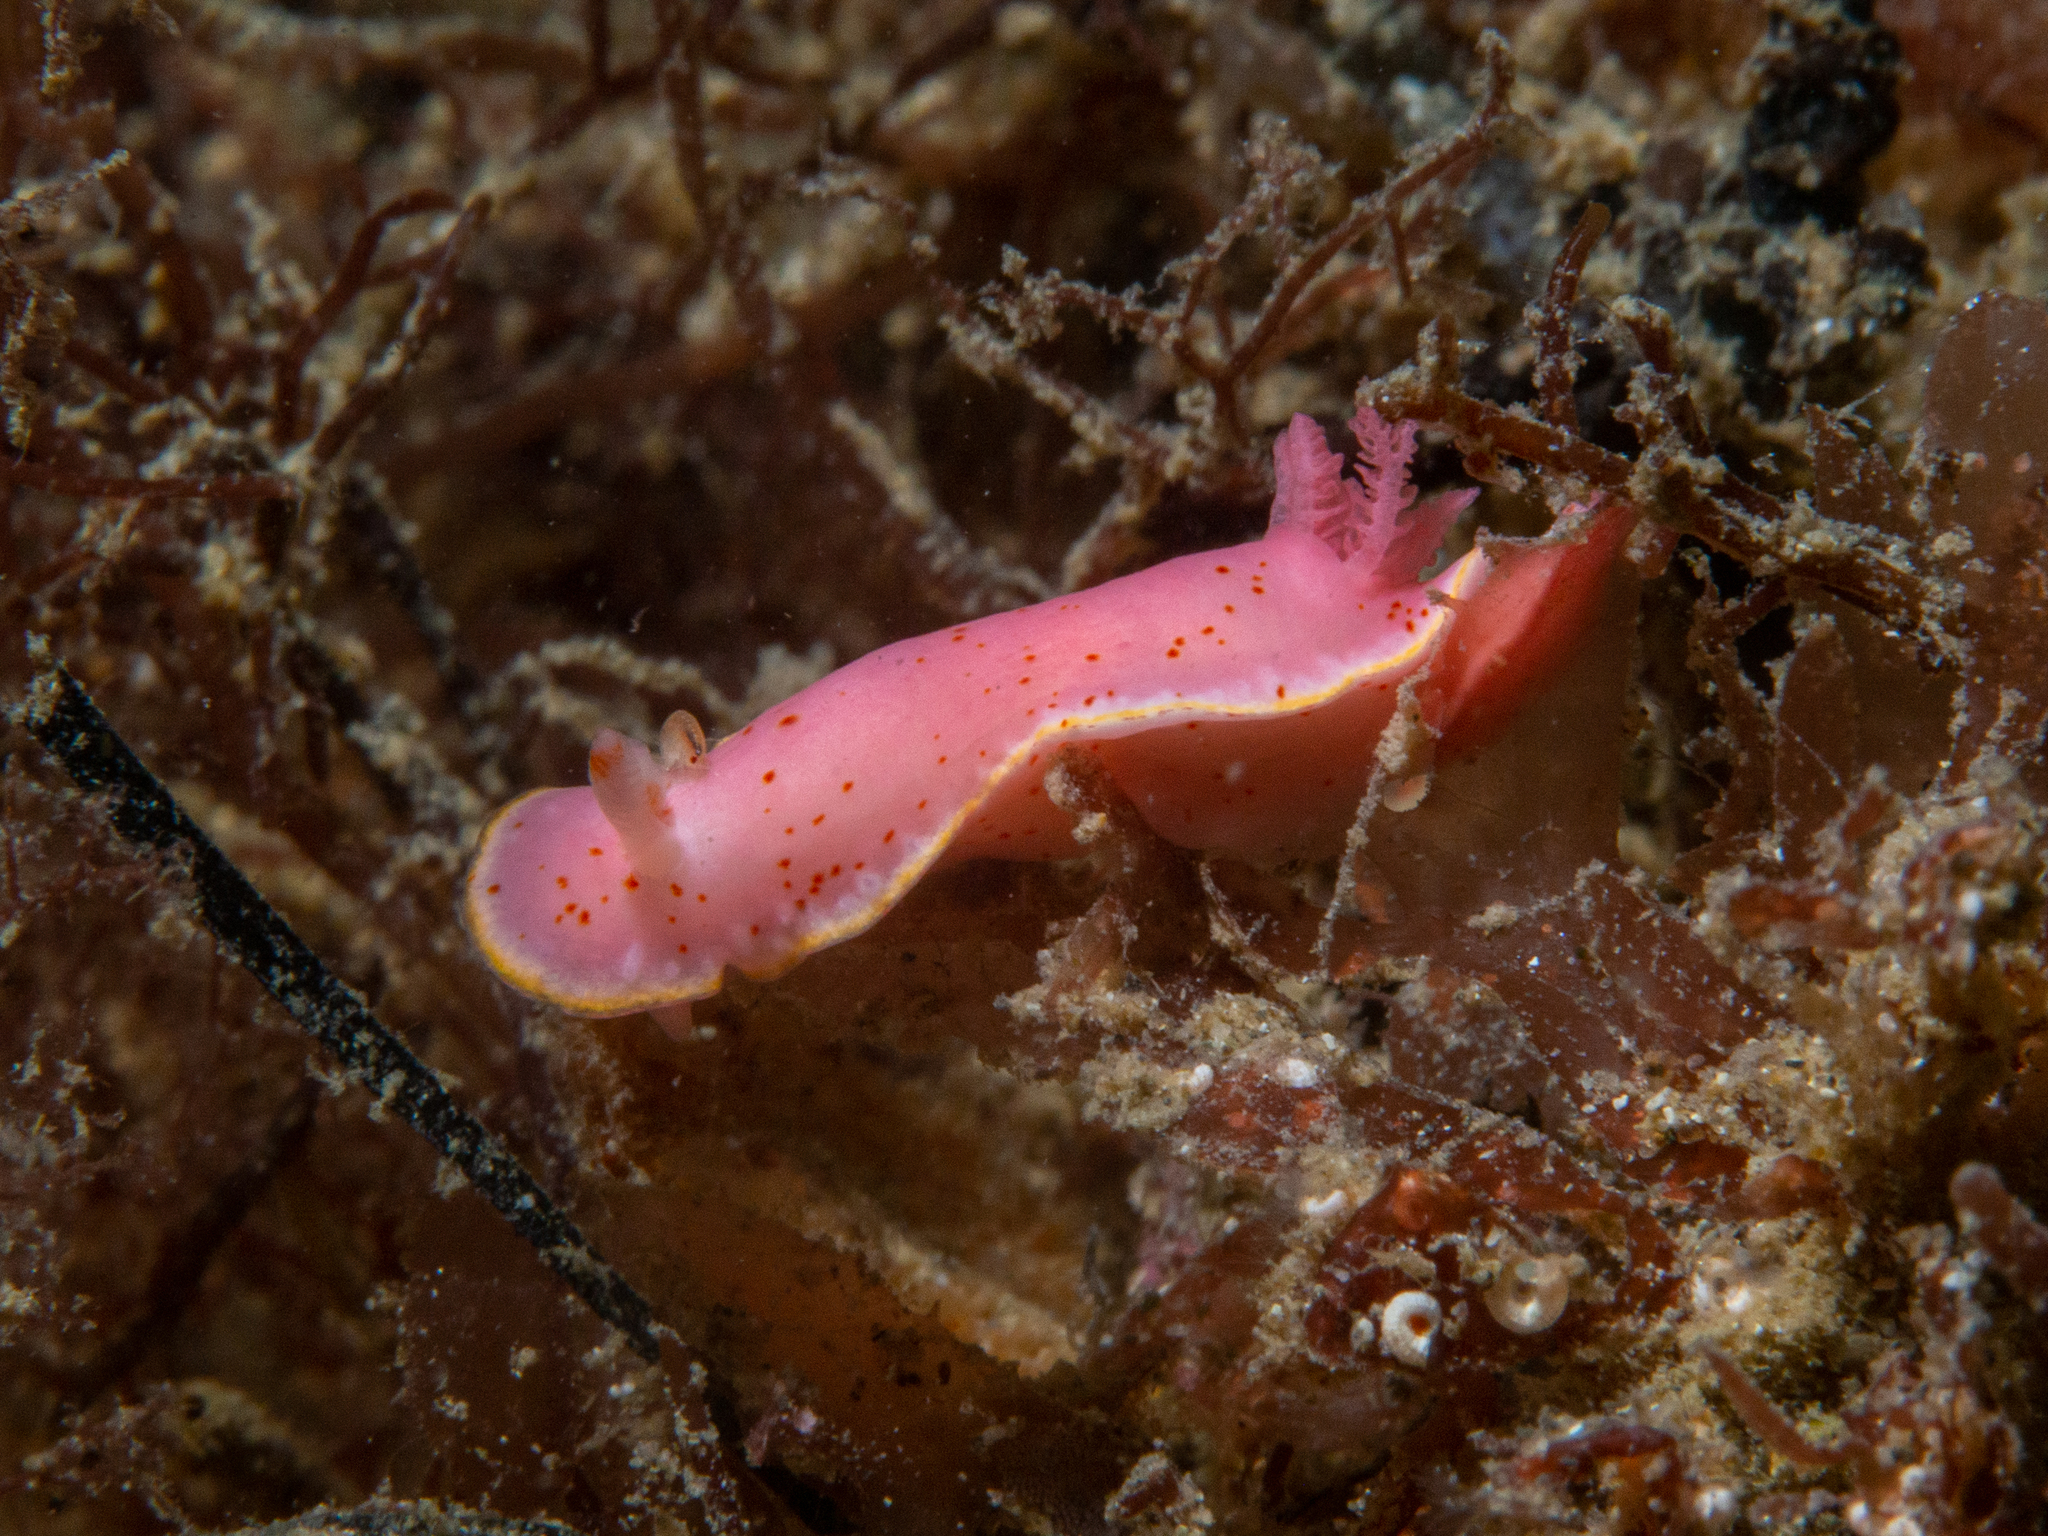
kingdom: Animalia
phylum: Mollusca
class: Gastropoda
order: Nudibranchia
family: Chromodorididae
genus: Verconia
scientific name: Verconia haliclona
